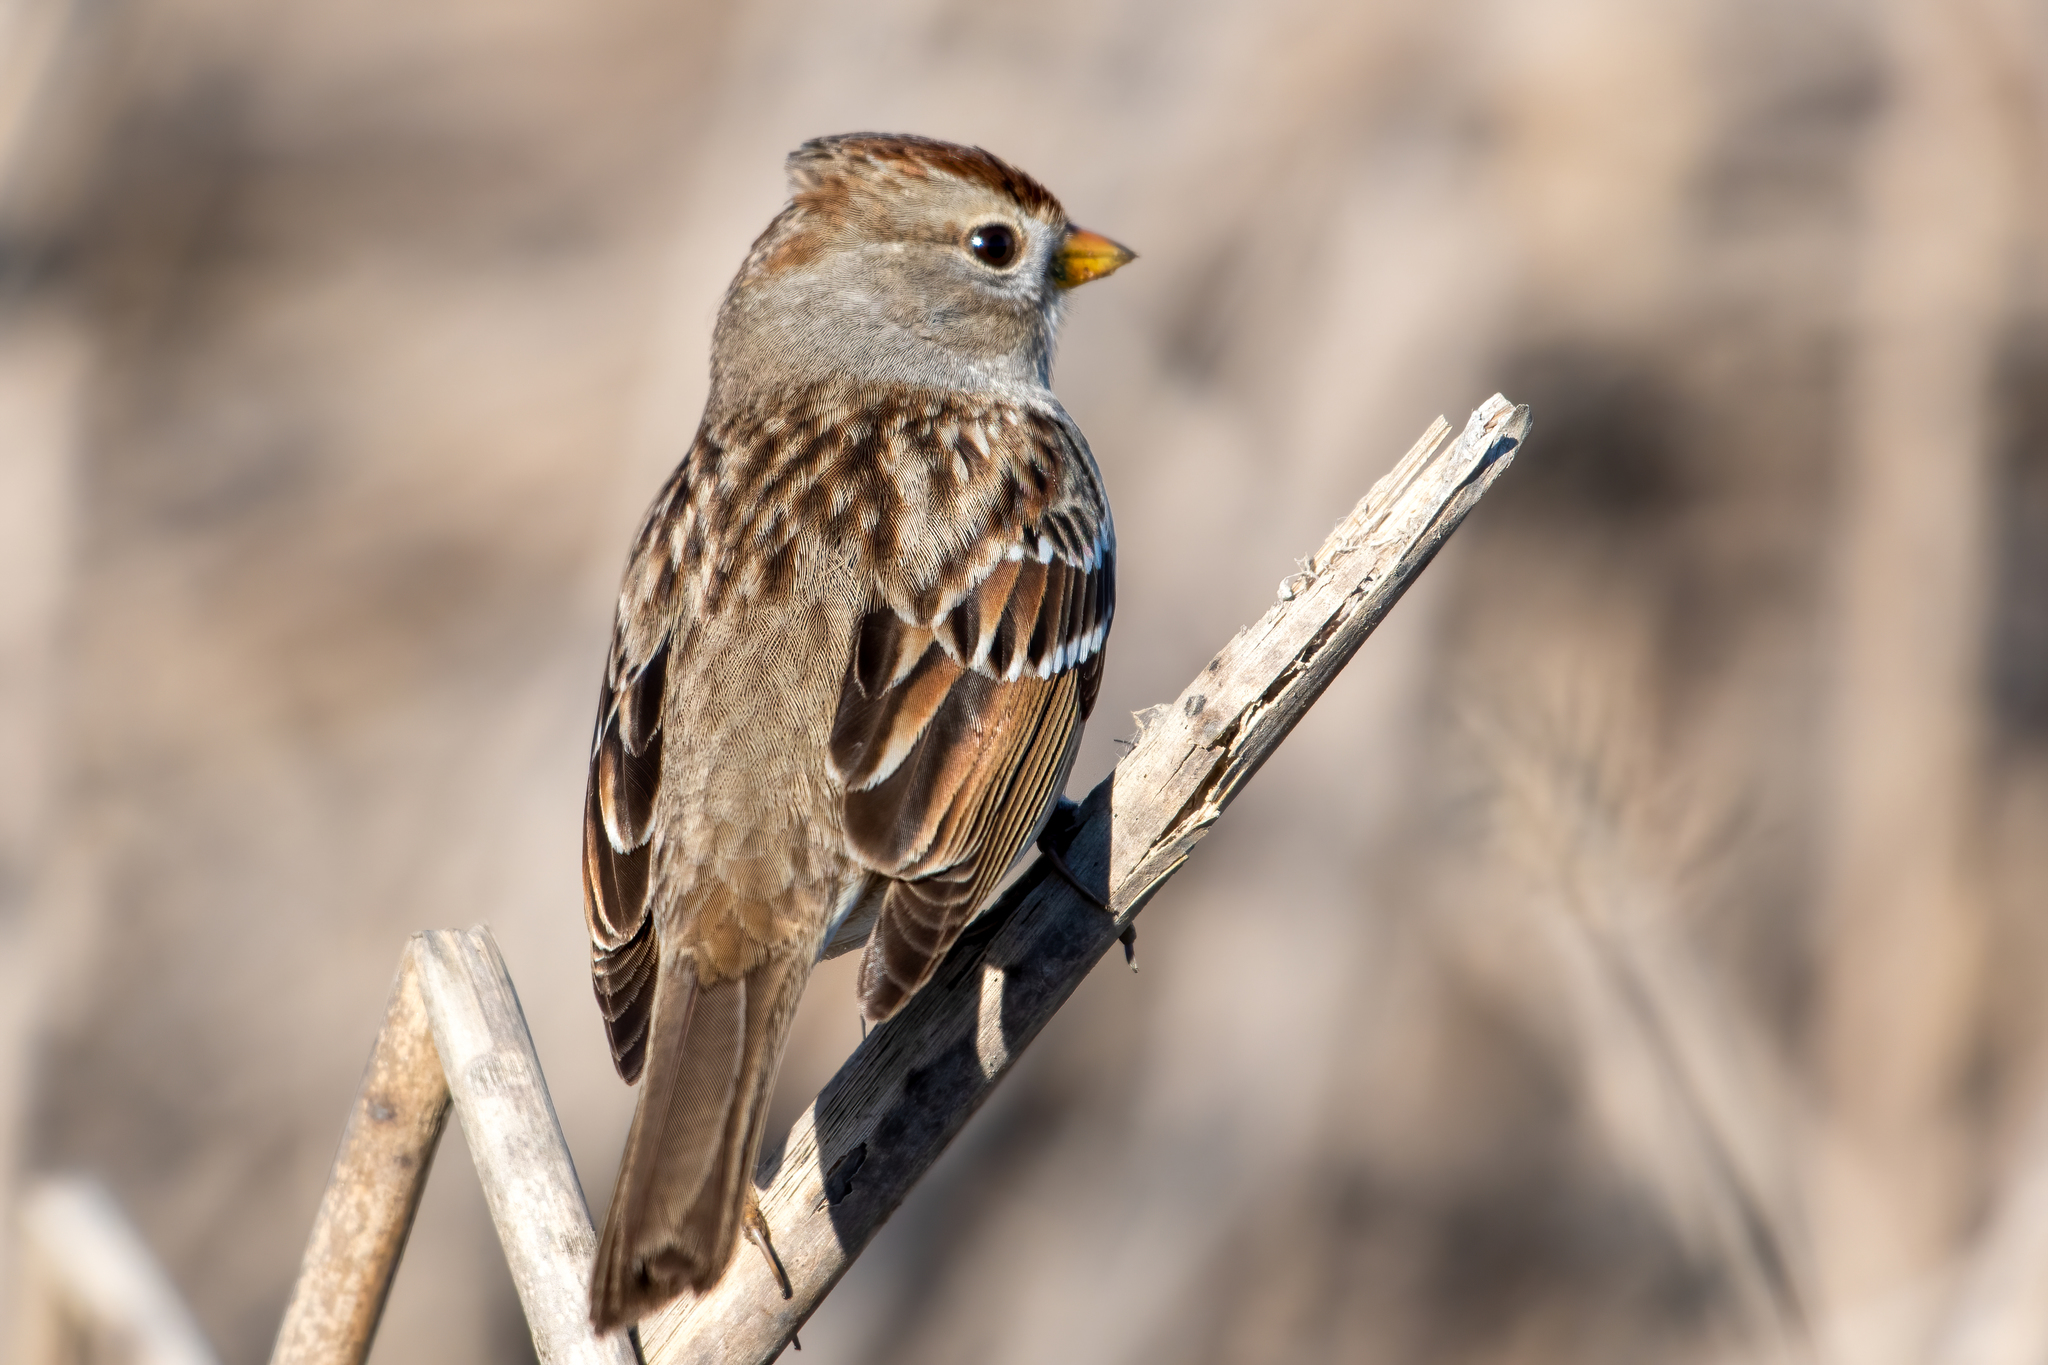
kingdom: Animalia
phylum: Chordata
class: Aves
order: Passeriformes
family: Passerellidae
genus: Zonotrichia
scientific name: Zonotrichia leucophrys
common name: White-crowned sparrow
